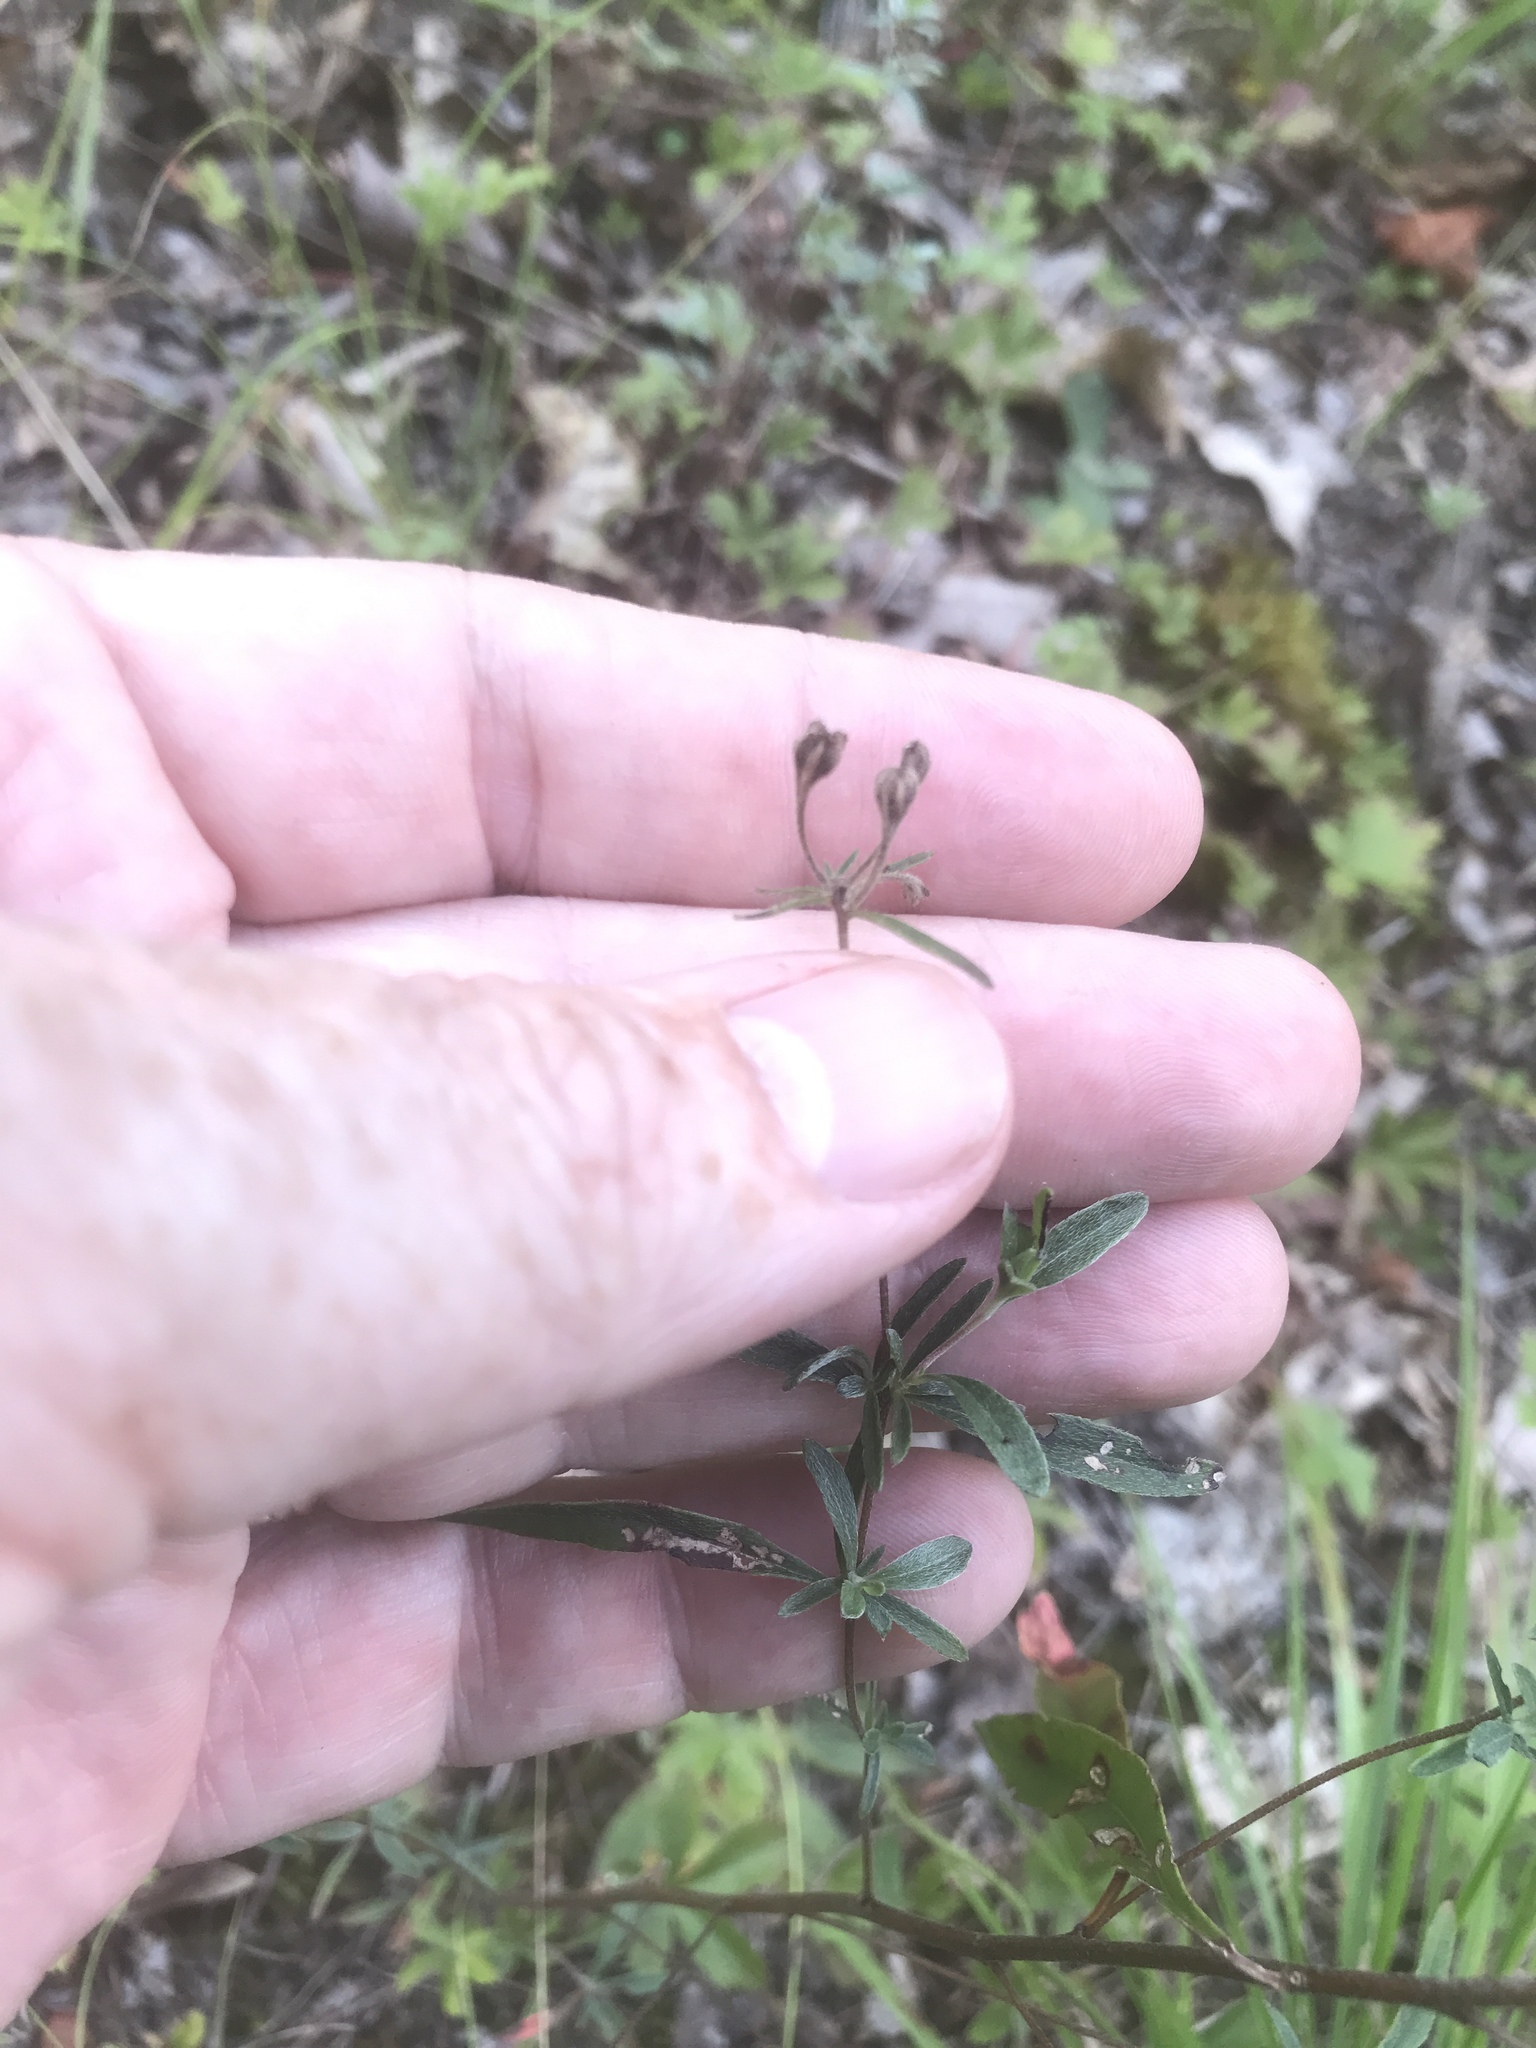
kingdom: Plantae
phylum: Tracheophyta
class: Magnoliopsida
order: Myrtales
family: Onagraceae
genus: Oenothera
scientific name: Oenothera fruticosa
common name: Southern sundrops
